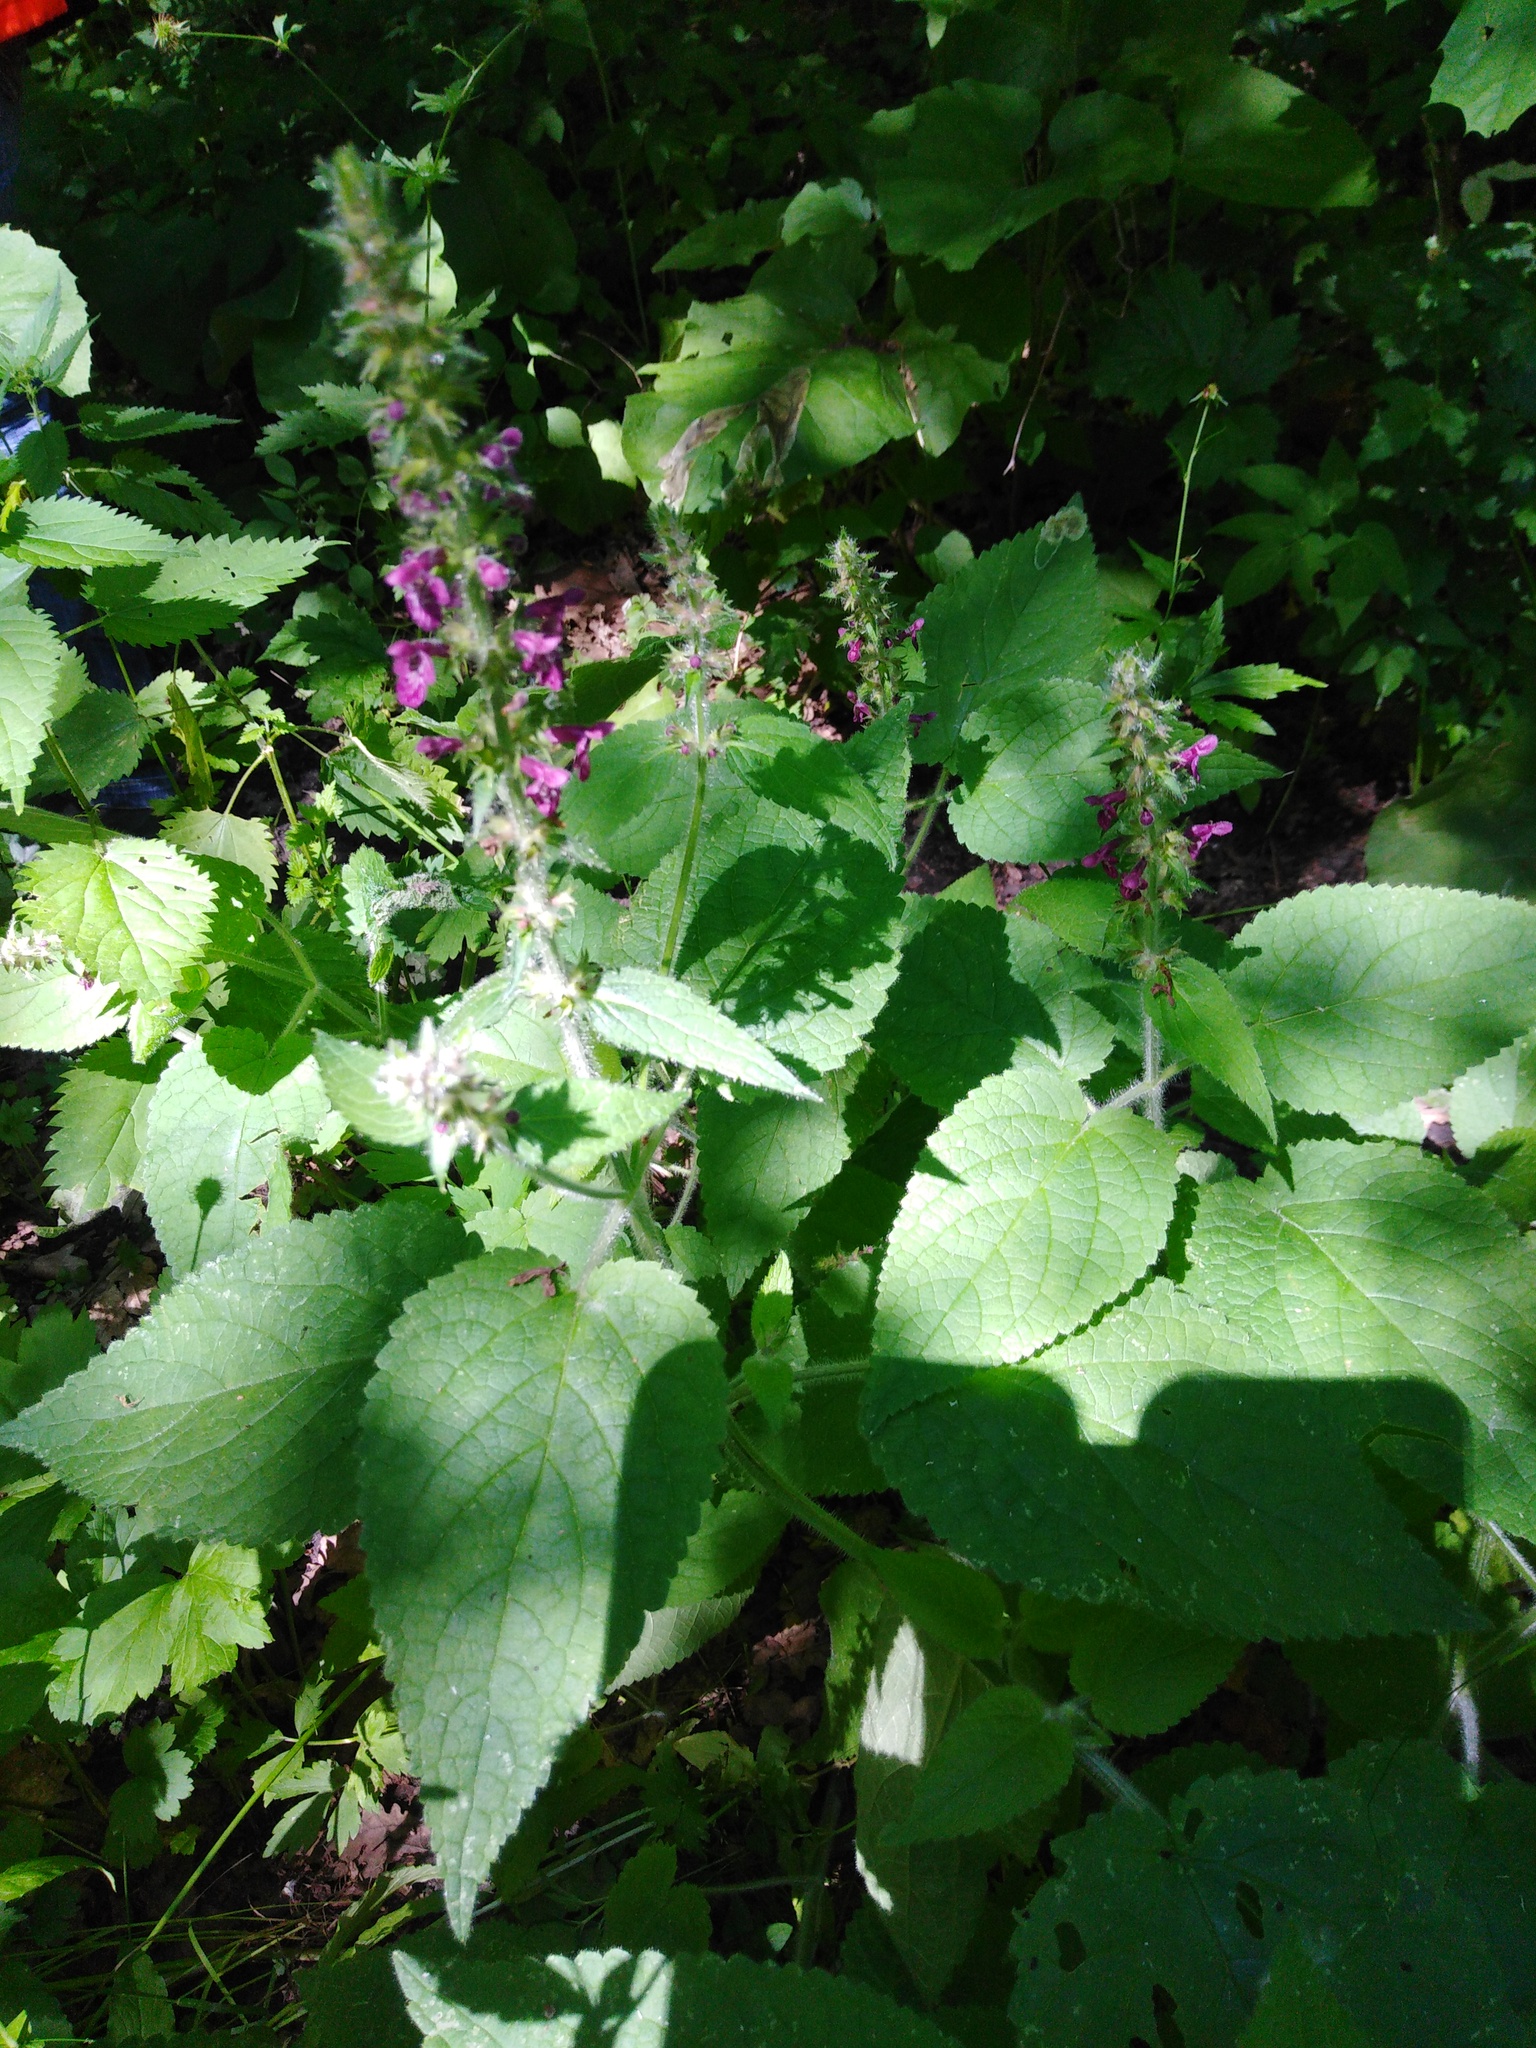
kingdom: Plantae
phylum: Tracheophyta
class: Magnoliopsida
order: Lamiales
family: Lamiaceae
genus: Stachys
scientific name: Stachys sylvatica
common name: Hedge woundwort
